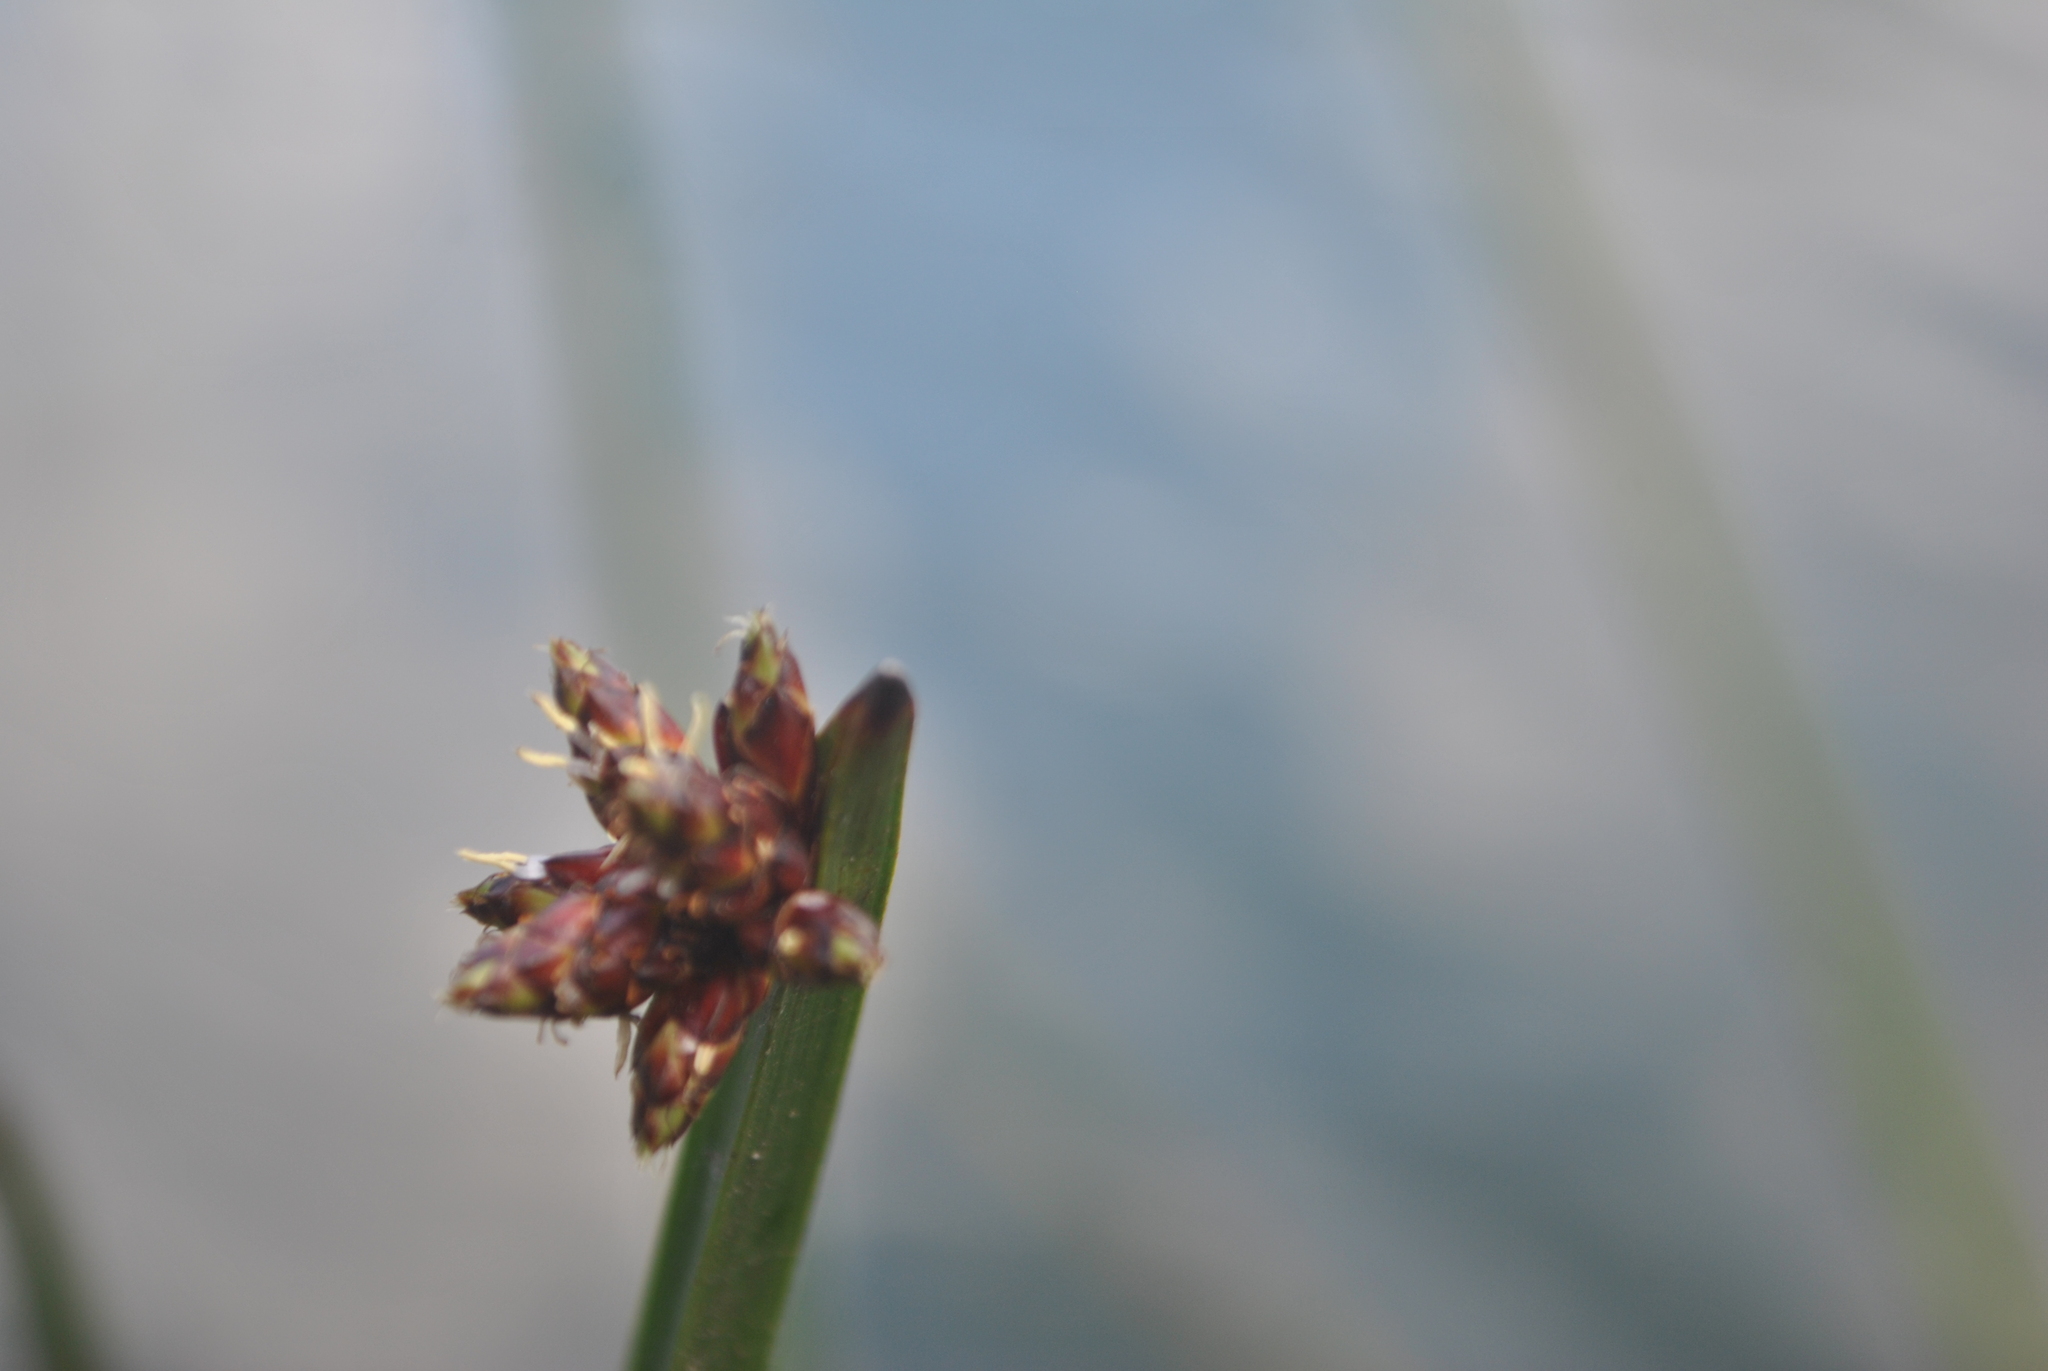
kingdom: Plantae
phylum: Tracheophyta
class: Liliopsida
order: Poales
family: Cyperaceae
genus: Schoenoplectiella
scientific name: Schoenoplectiella mucronata
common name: Bog bulrush
